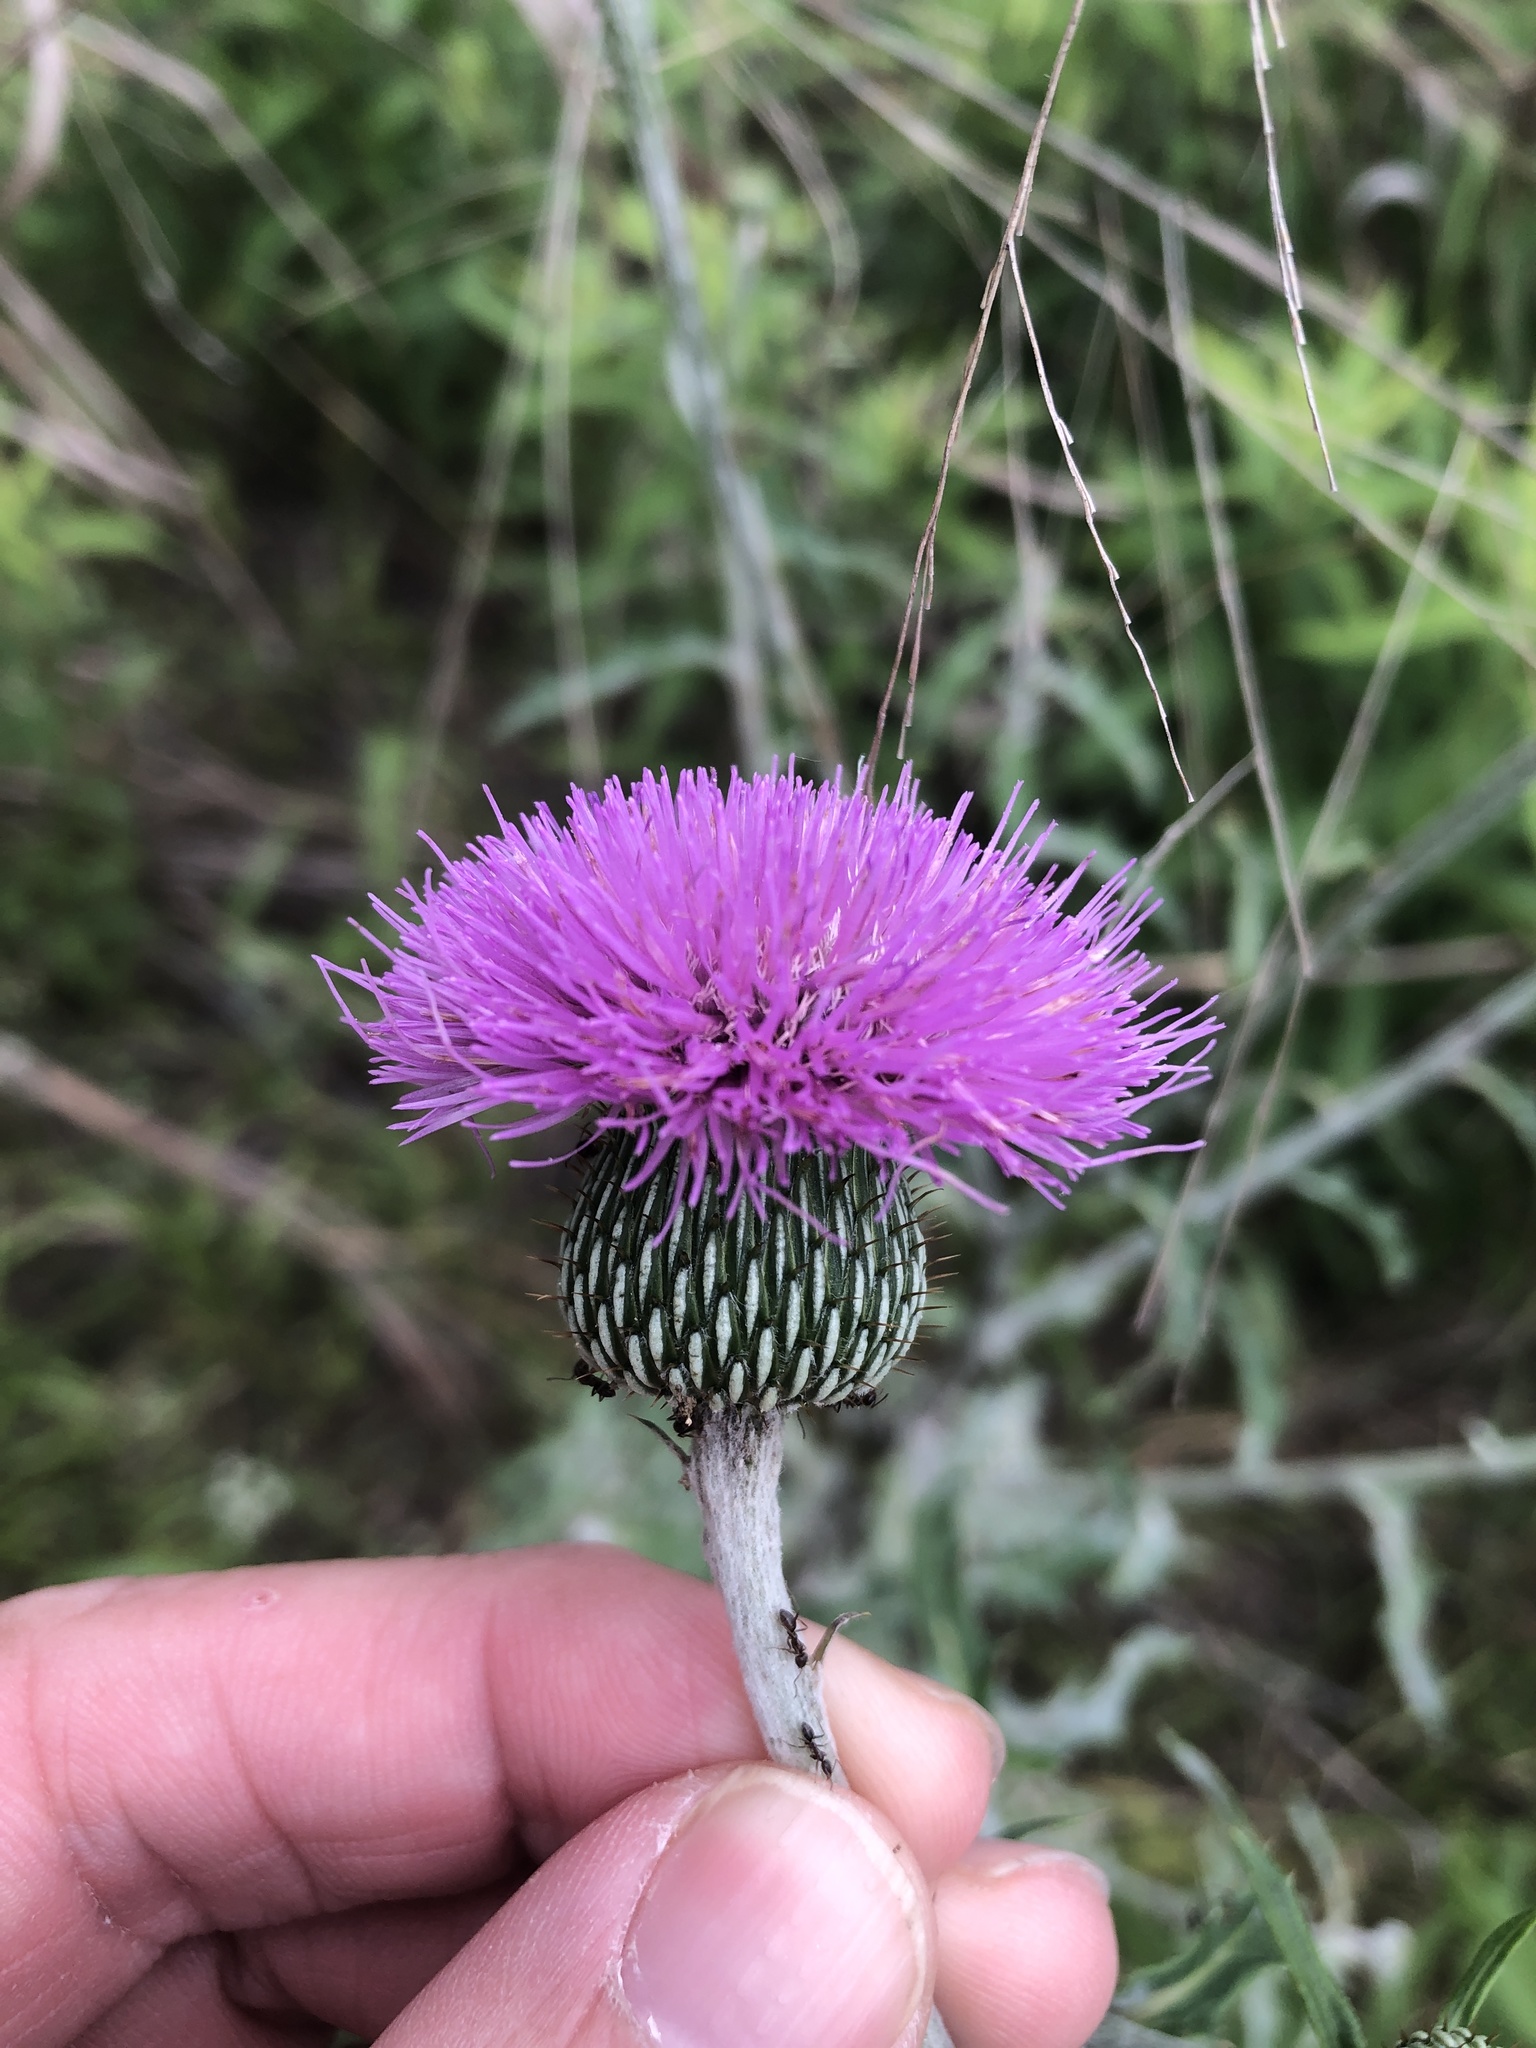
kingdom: Plantae
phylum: Tracheophyta
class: Magnoliopsida
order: Asterales
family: Asteraceae
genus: Cirsium
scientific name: Cirsium texanum
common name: Texas purple thistle
